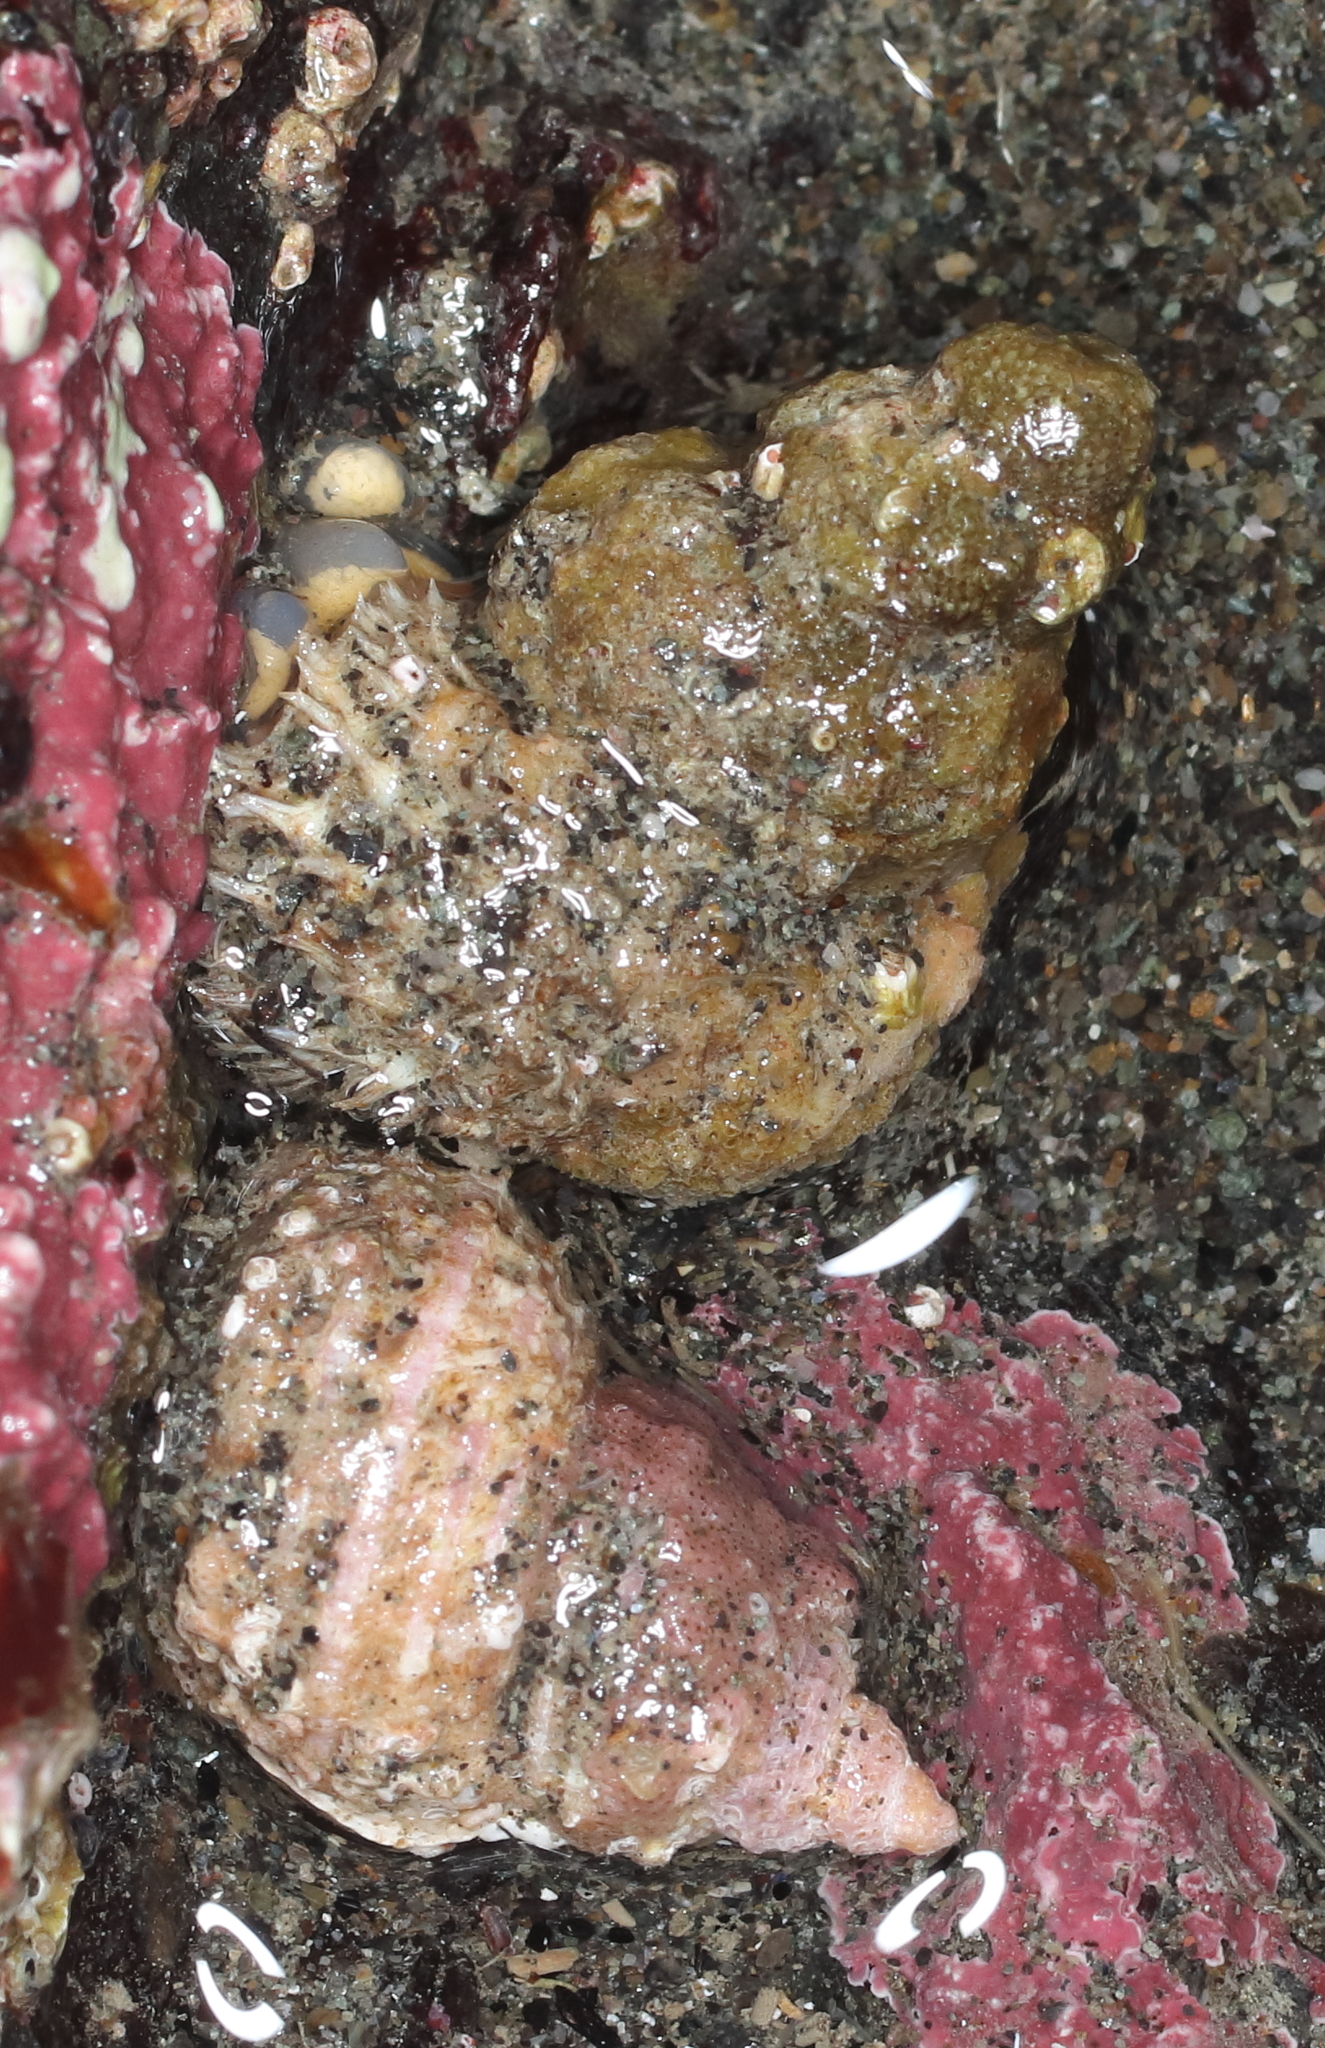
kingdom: Animalia
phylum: Mollusca
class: Gastropoda
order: Littorinimorpha
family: Capulidae
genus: Trichotropis
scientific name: Trichotropis cancellata
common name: Cancellate hairysnail
